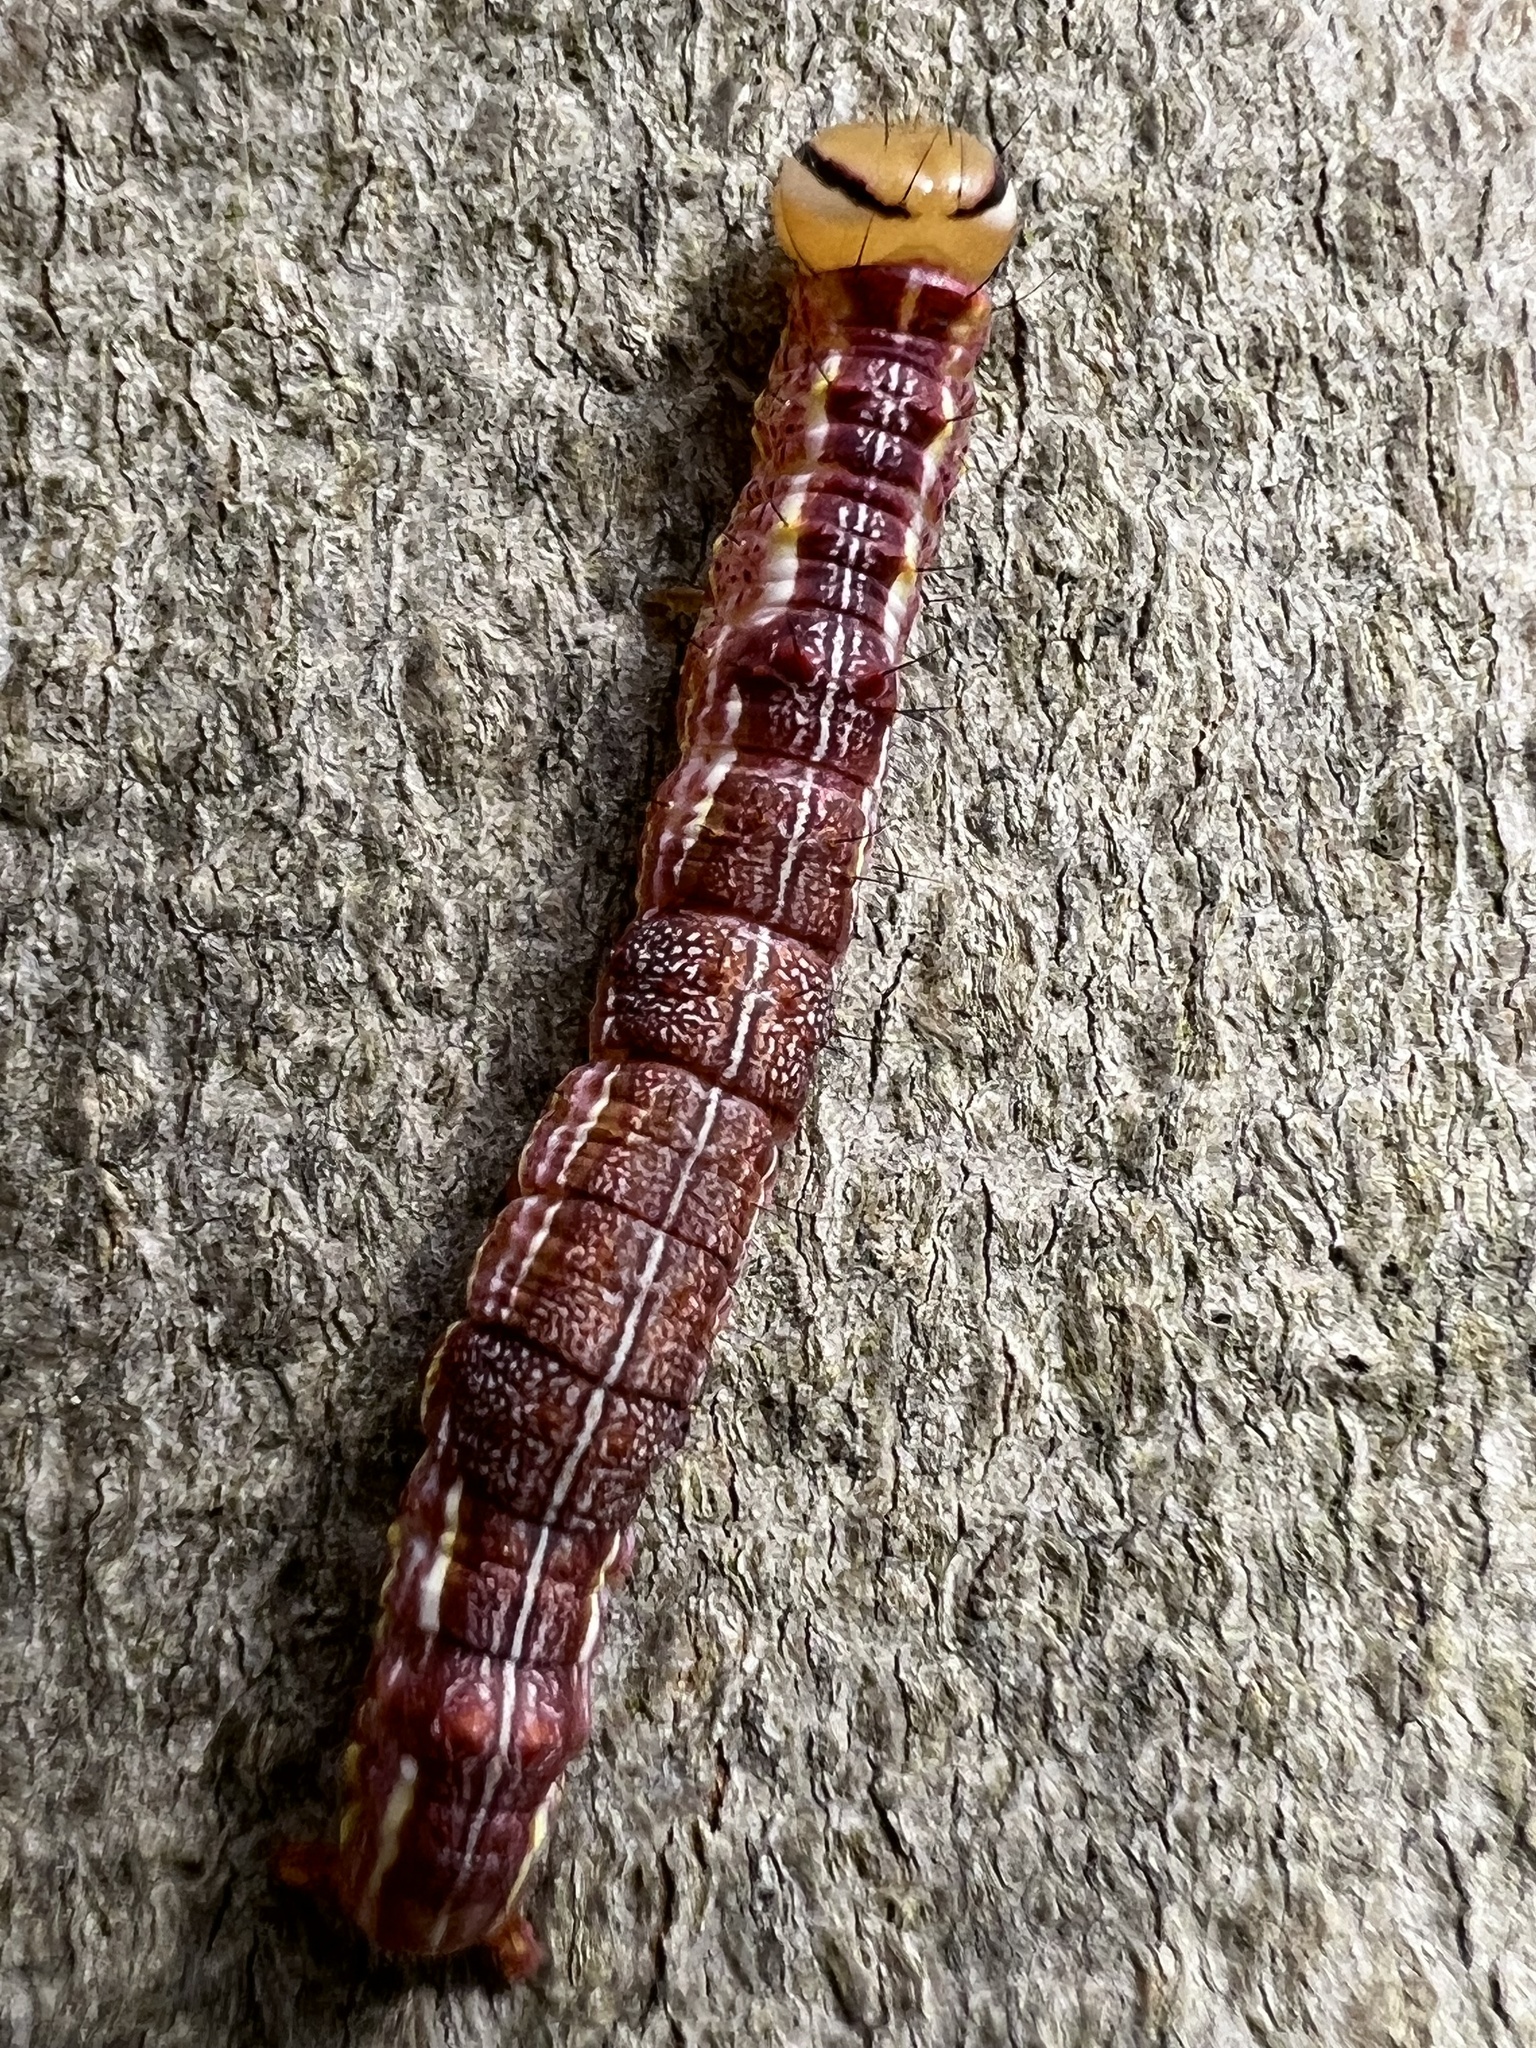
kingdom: Animalia
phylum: Arthropoda
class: Insecta
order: Lepidoptera
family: Notodontidae
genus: Lochmaeus
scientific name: Lochmaeus manteo
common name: Variable oakleaf caterpillar moth
